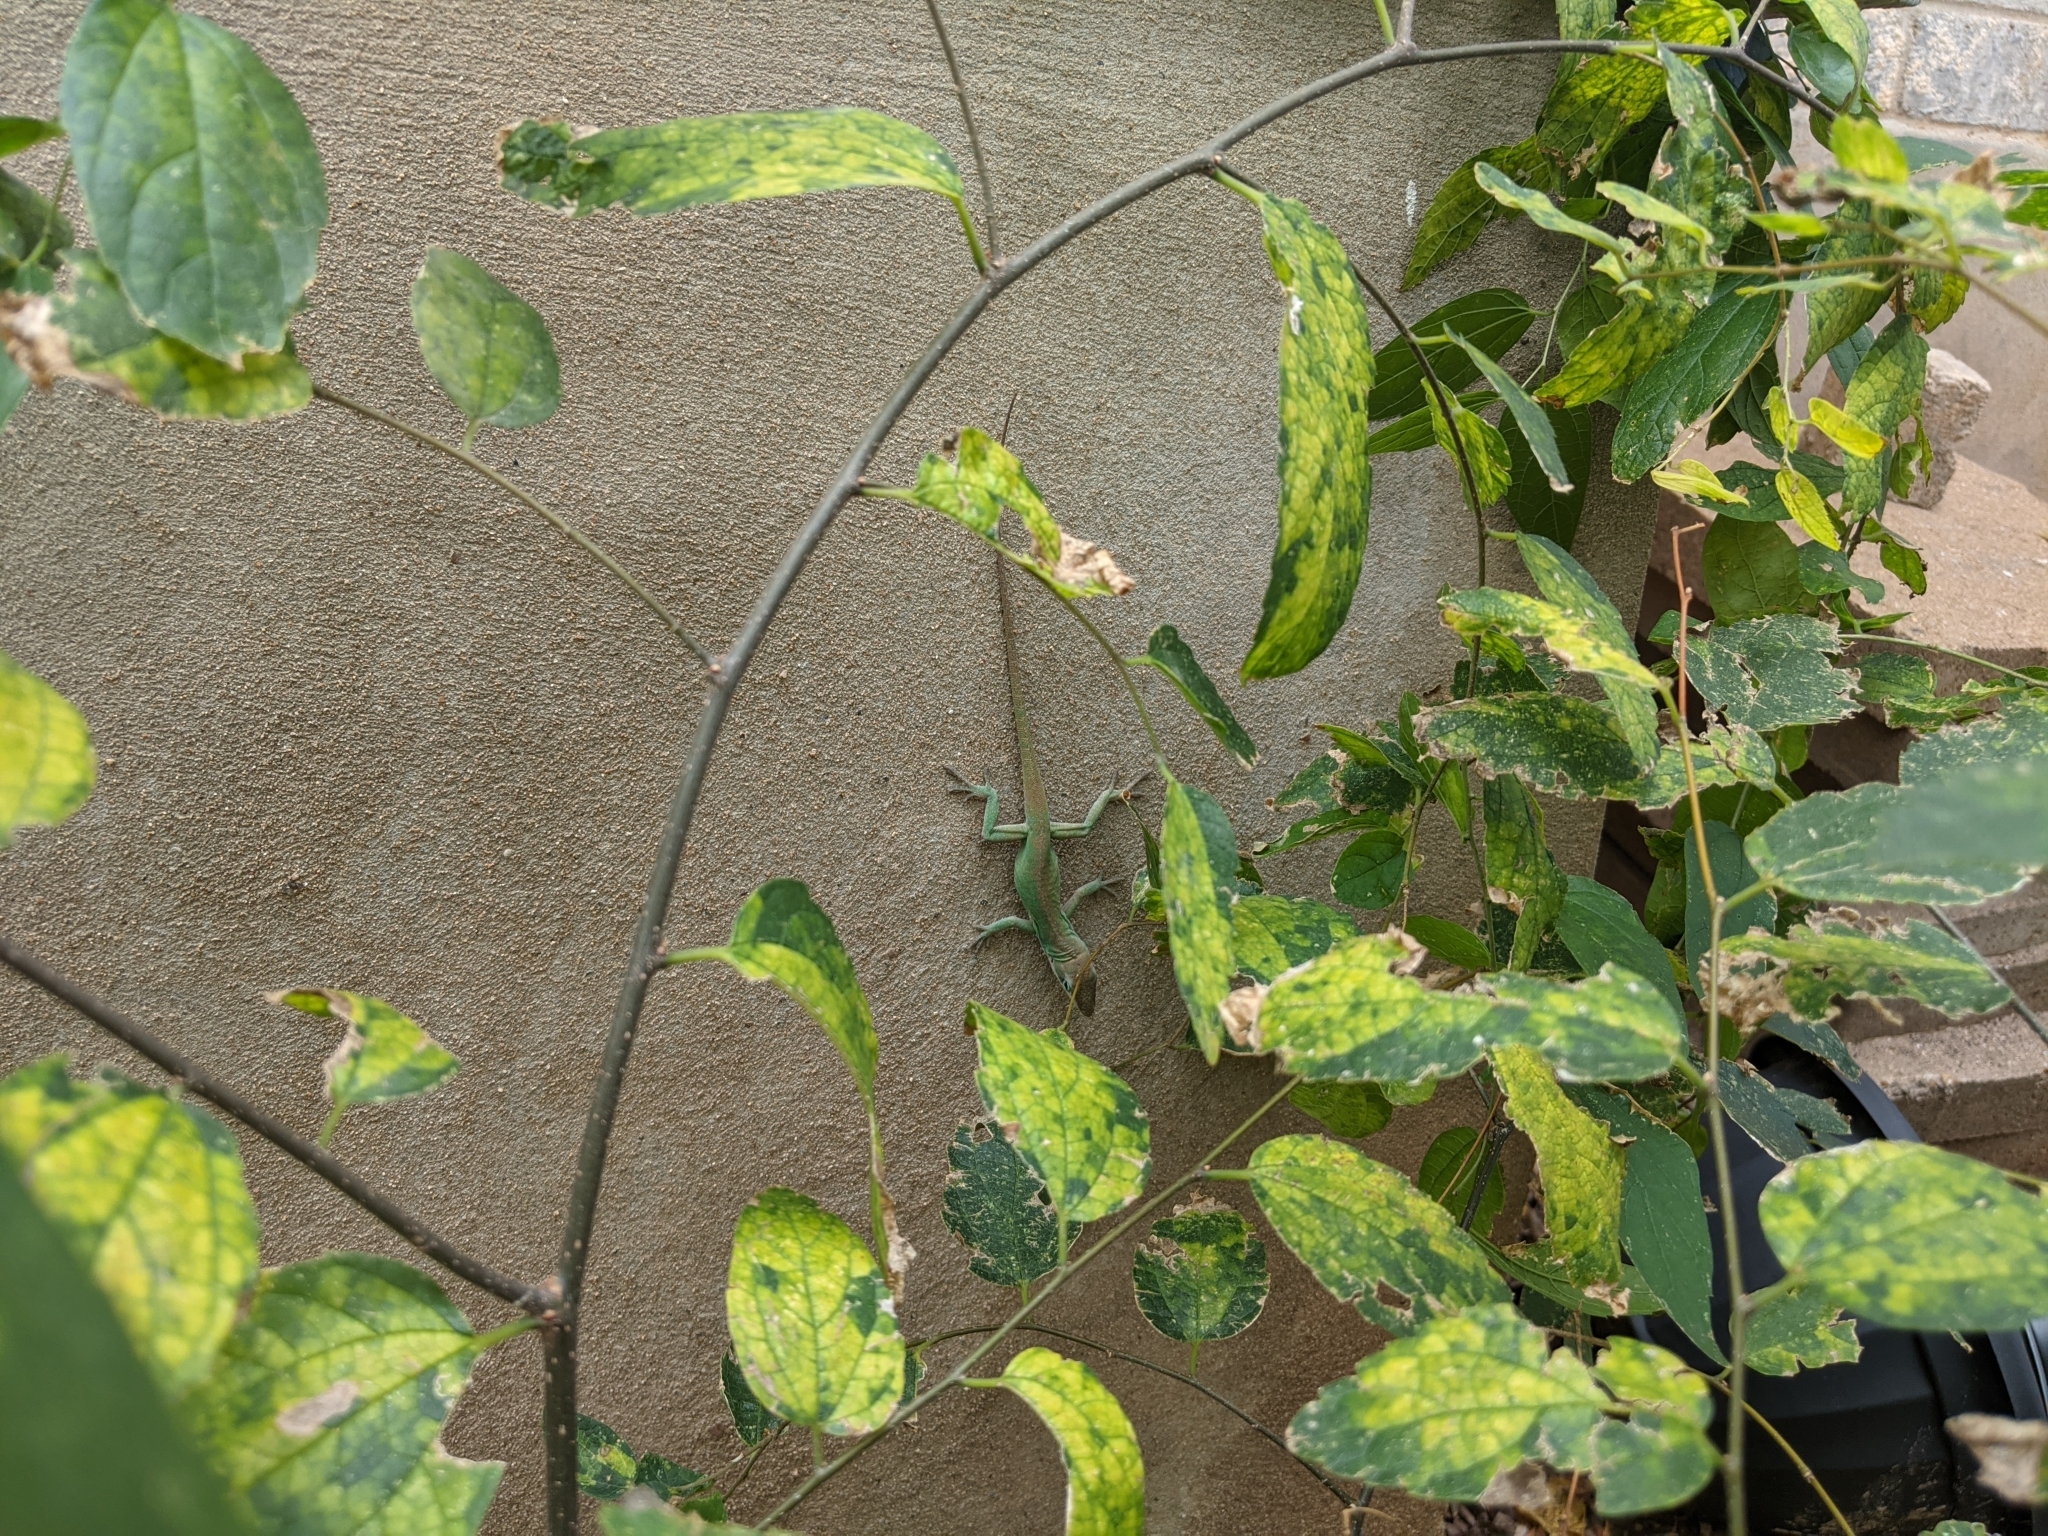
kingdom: Animalia
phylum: Chordata
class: Squamata
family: Dactyloidae
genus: Anolis
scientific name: Anolis carolinensis
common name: Green anole
